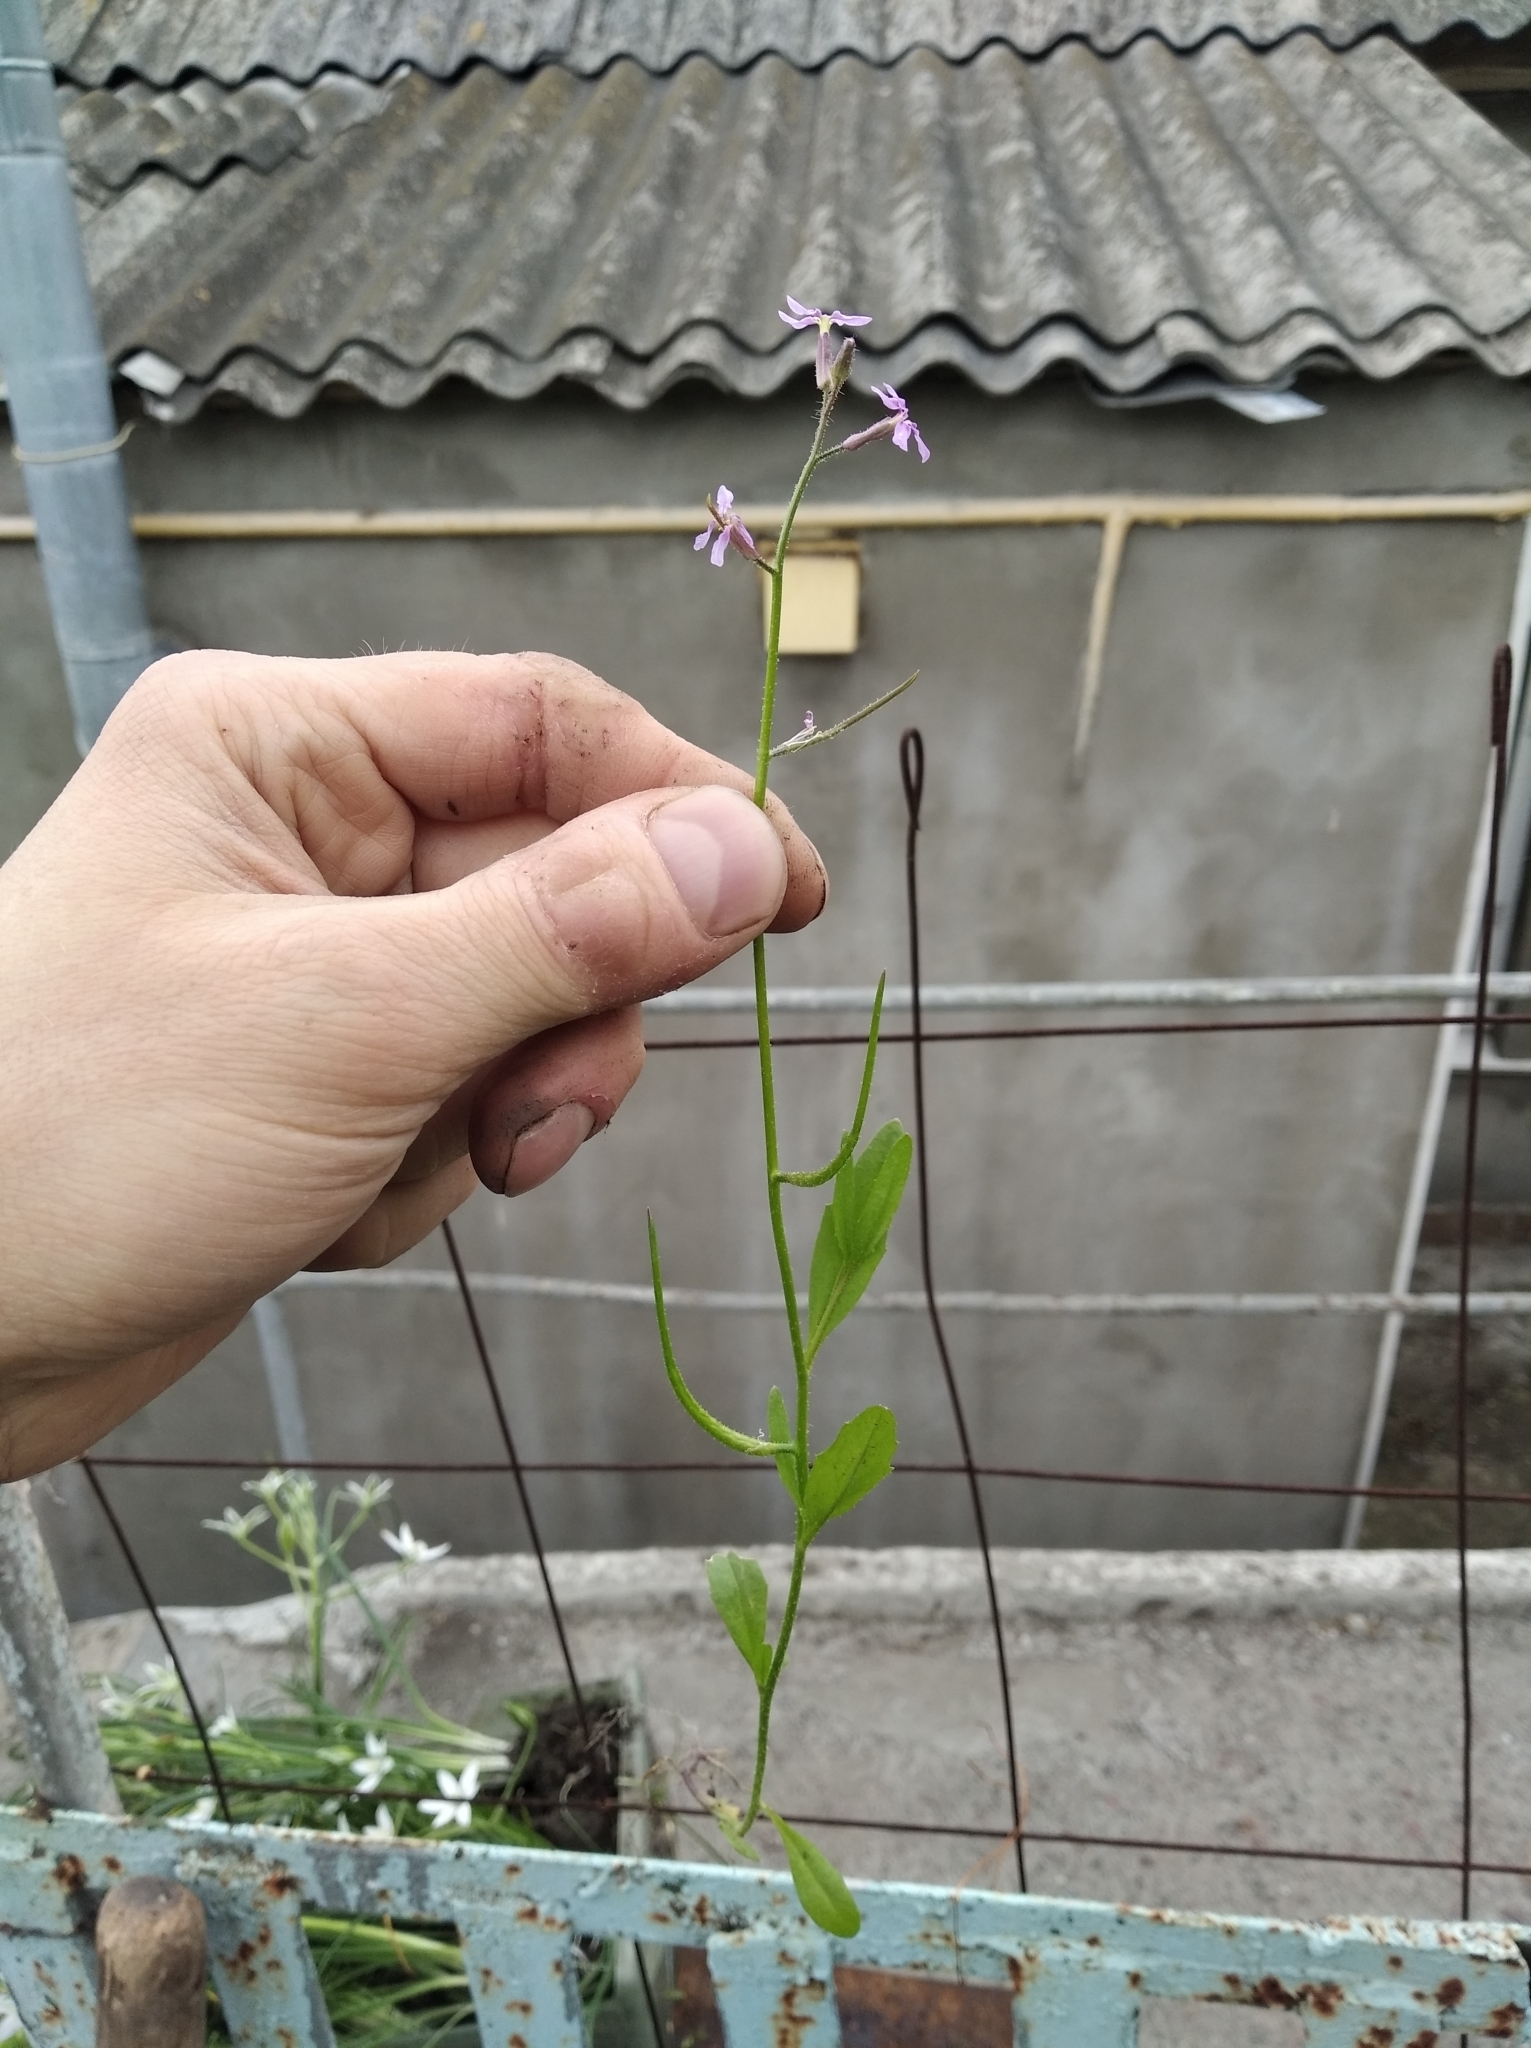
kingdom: Plantae
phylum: Tracheophyta
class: Magnoliopsida
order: Brassicales
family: Brassicaceae
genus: Chorispora
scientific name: Chorispora tenella
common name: Crossflower
